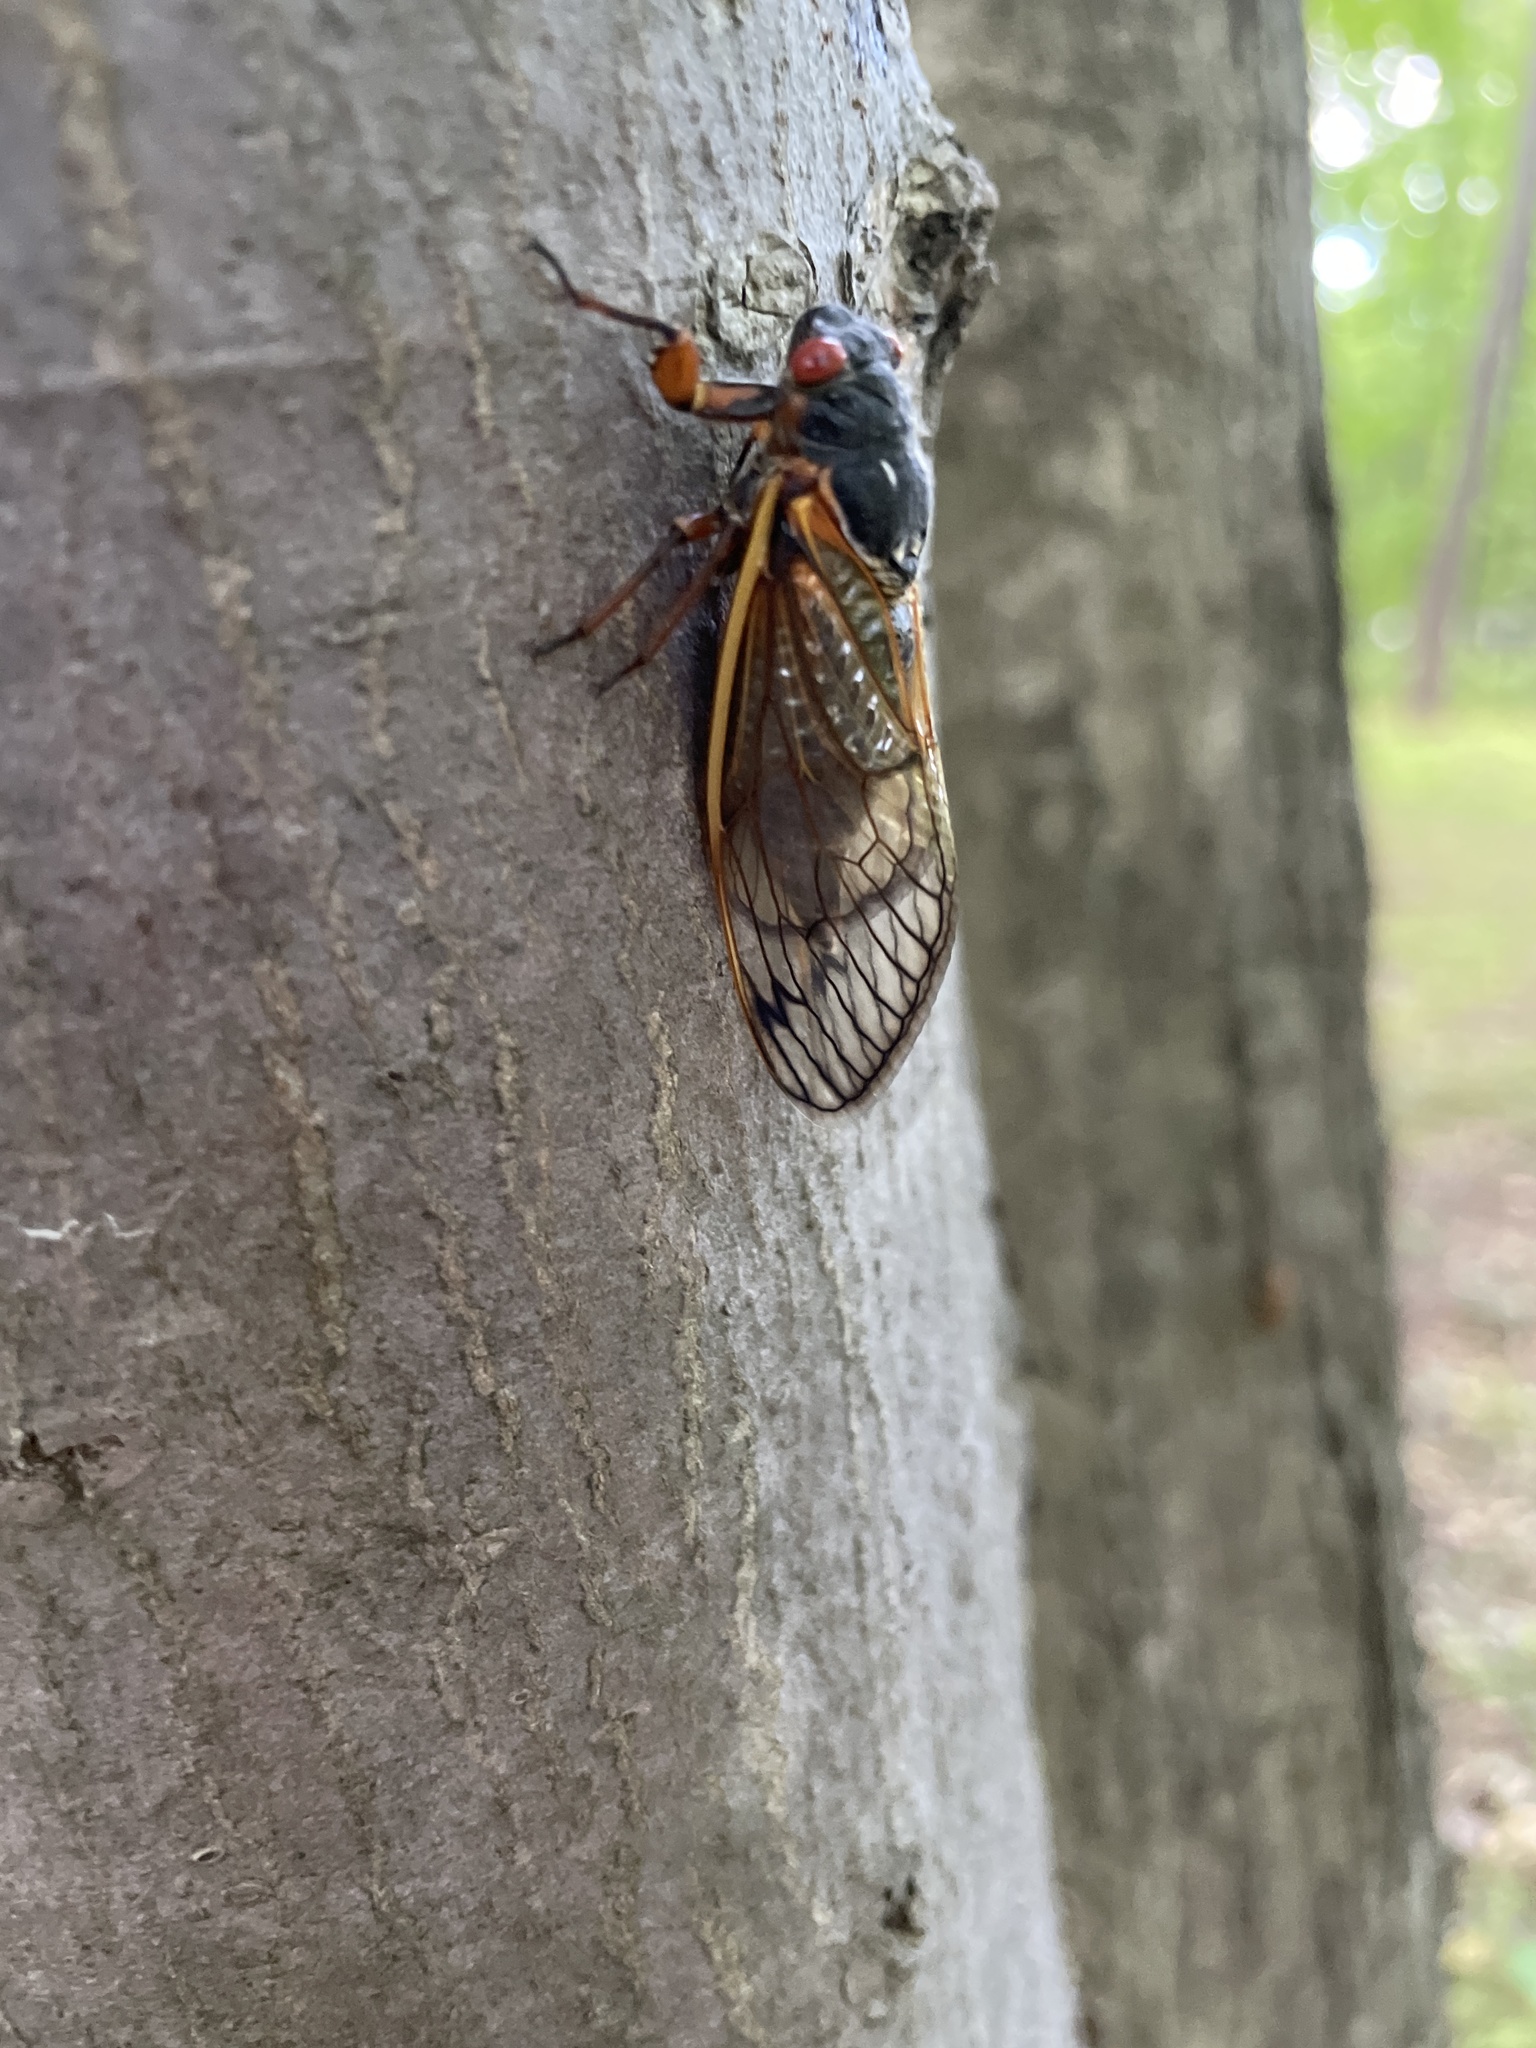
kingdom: Animalia
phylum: Arthropoda
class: Insecta
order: Hemiptera
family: Cicadidae
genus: Magicicada
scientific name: Magicicada septendecim
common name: Periodical cicada
